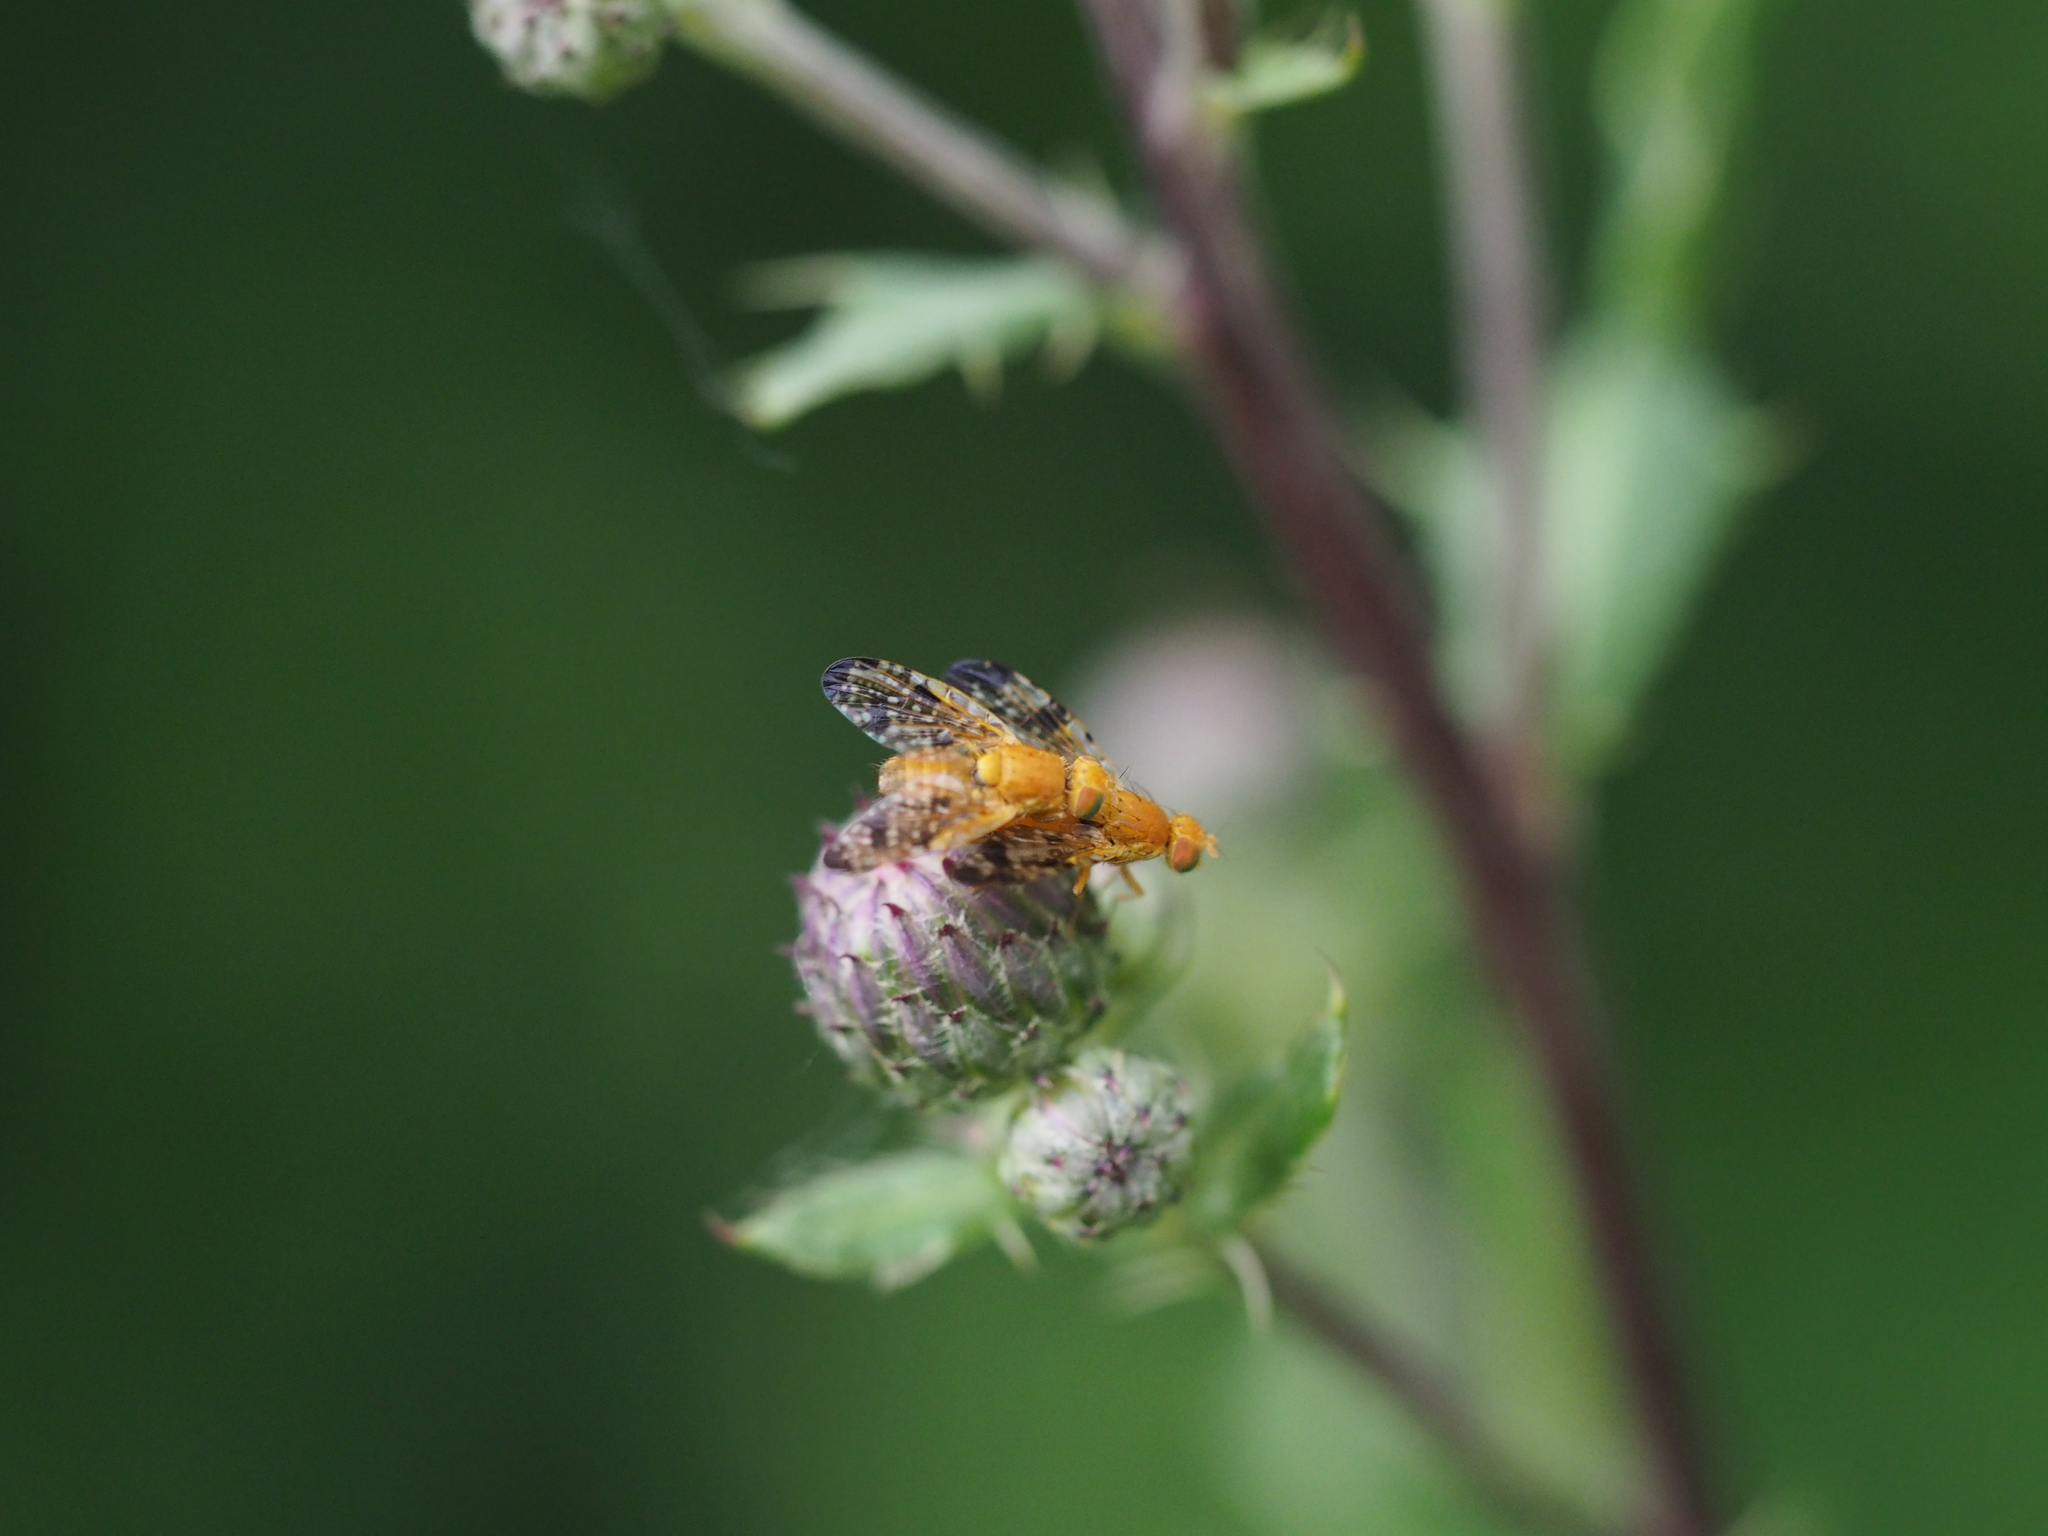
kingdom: Animalia
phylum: Arthropoda
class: Insecta
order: Diptera
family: Tephritidae
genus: Xyphosia
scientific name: Xyphosia miliaria
